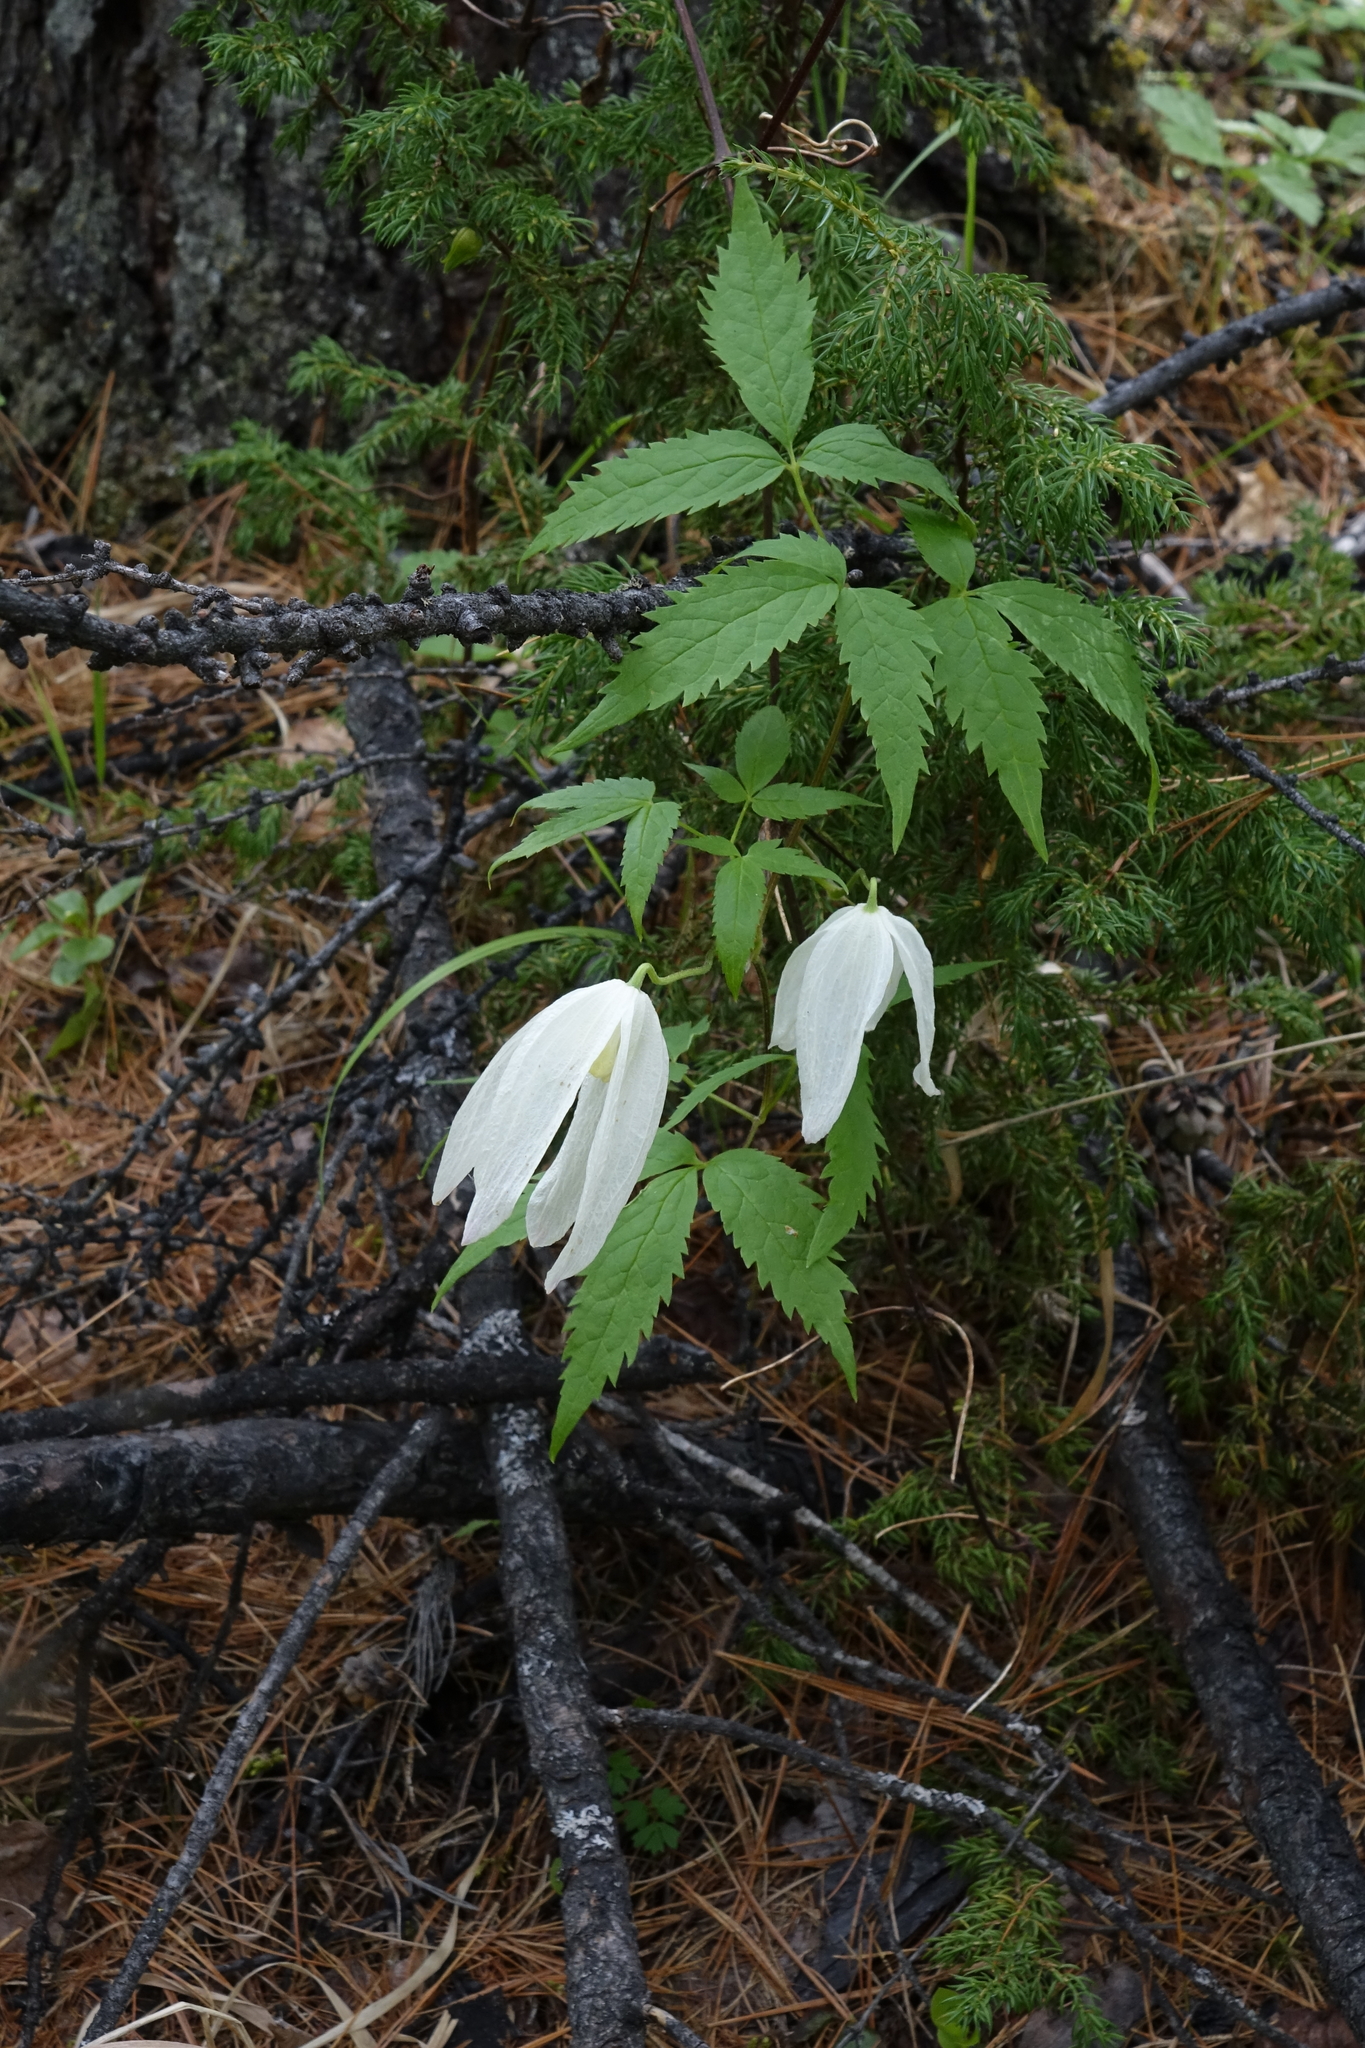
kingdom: Plantae
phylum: Tracheophyta
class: Magnoliopsida
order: Ranunculales
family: Ranunculaceae
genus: Clematis
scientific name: Clematis sibirica
